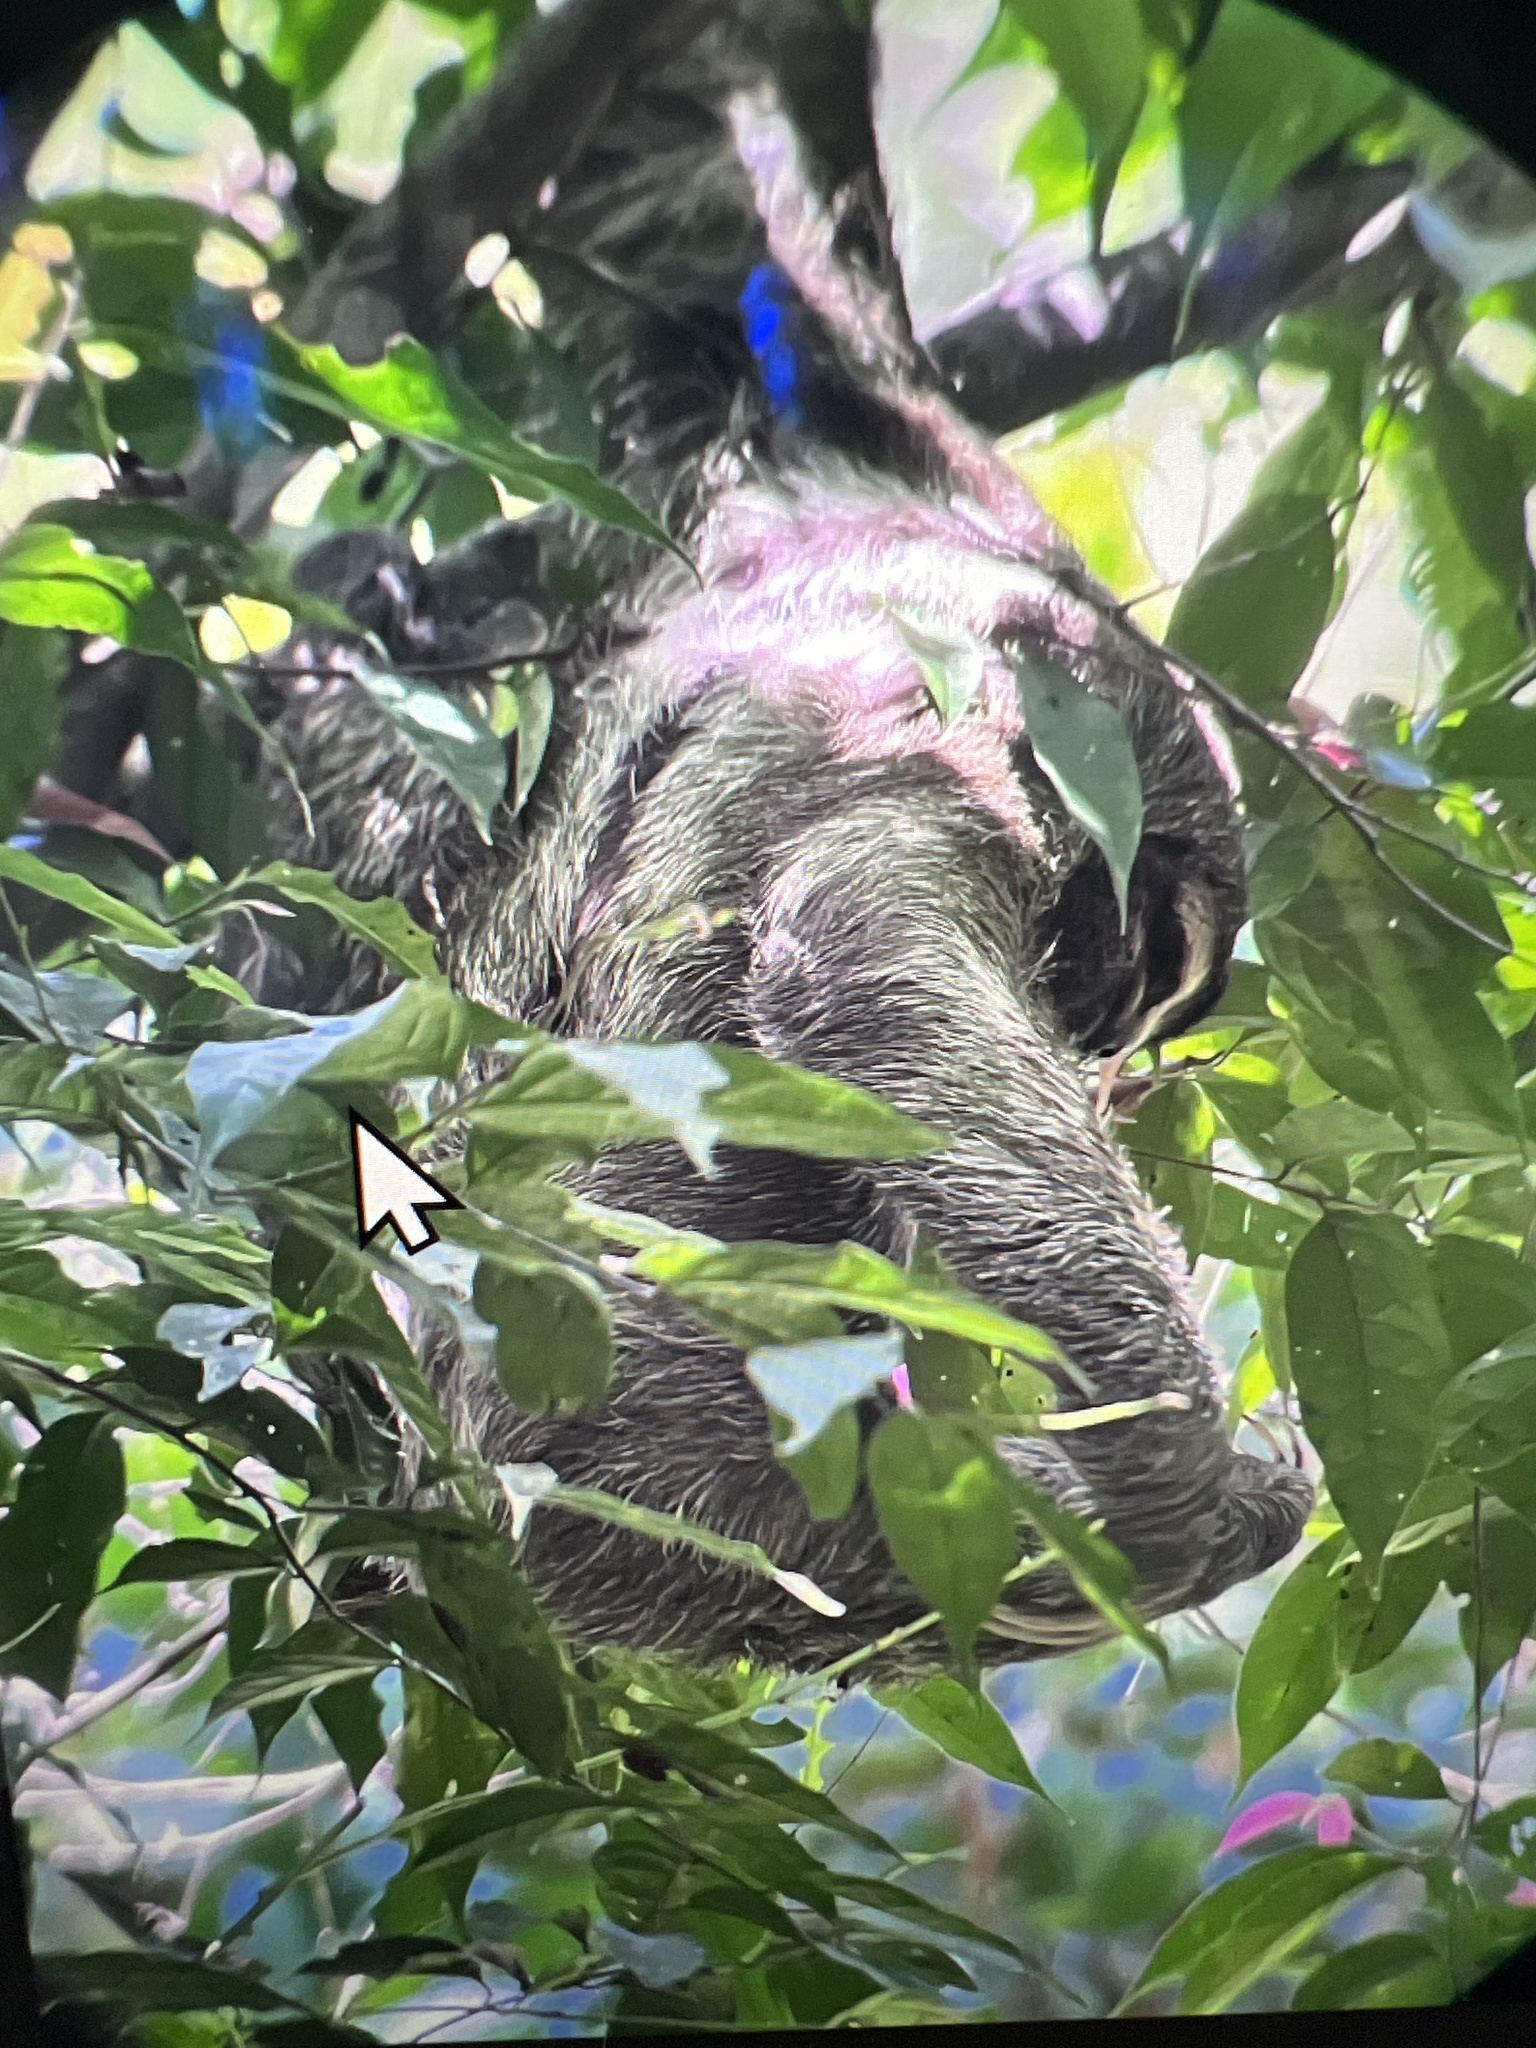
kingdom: Animalia
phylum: Chordata
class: Mammalia
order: Pilosa
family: Bradypodidae
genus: Bradypus
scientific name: Bradypus variegatus
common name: Brown-throated three-toed sloth
